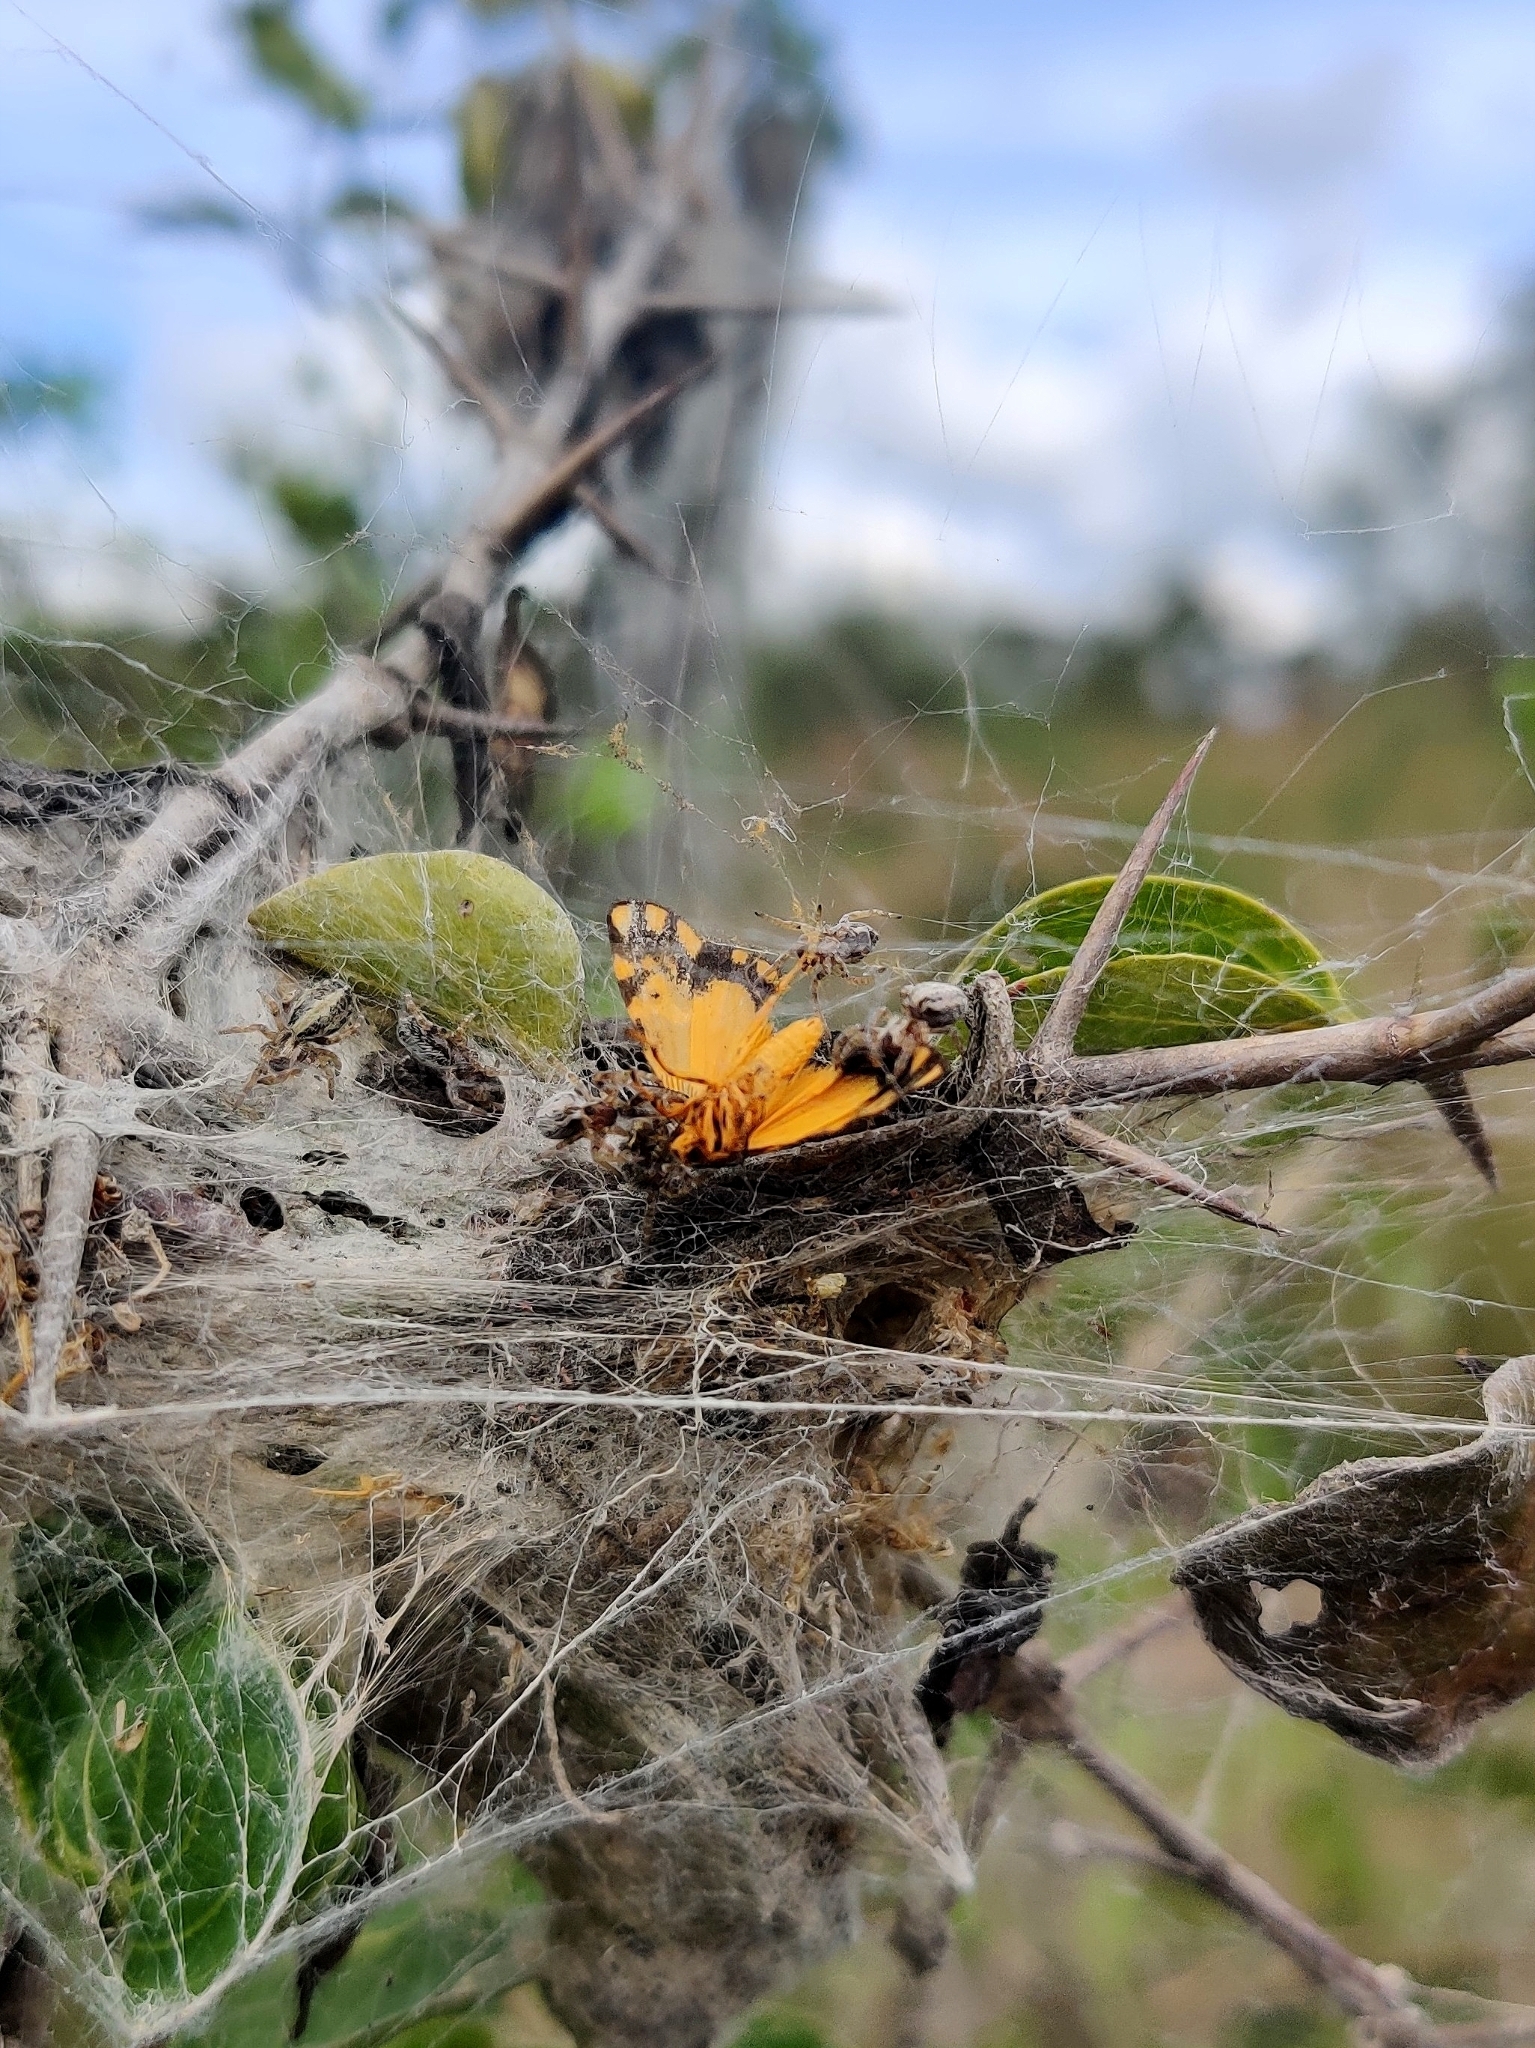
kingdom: Animalia
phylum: Arthropoda
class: Arachnida
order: Araneae
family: Eresidae
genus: Stegodyphus
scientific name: Stegodyphus sarasinorum
